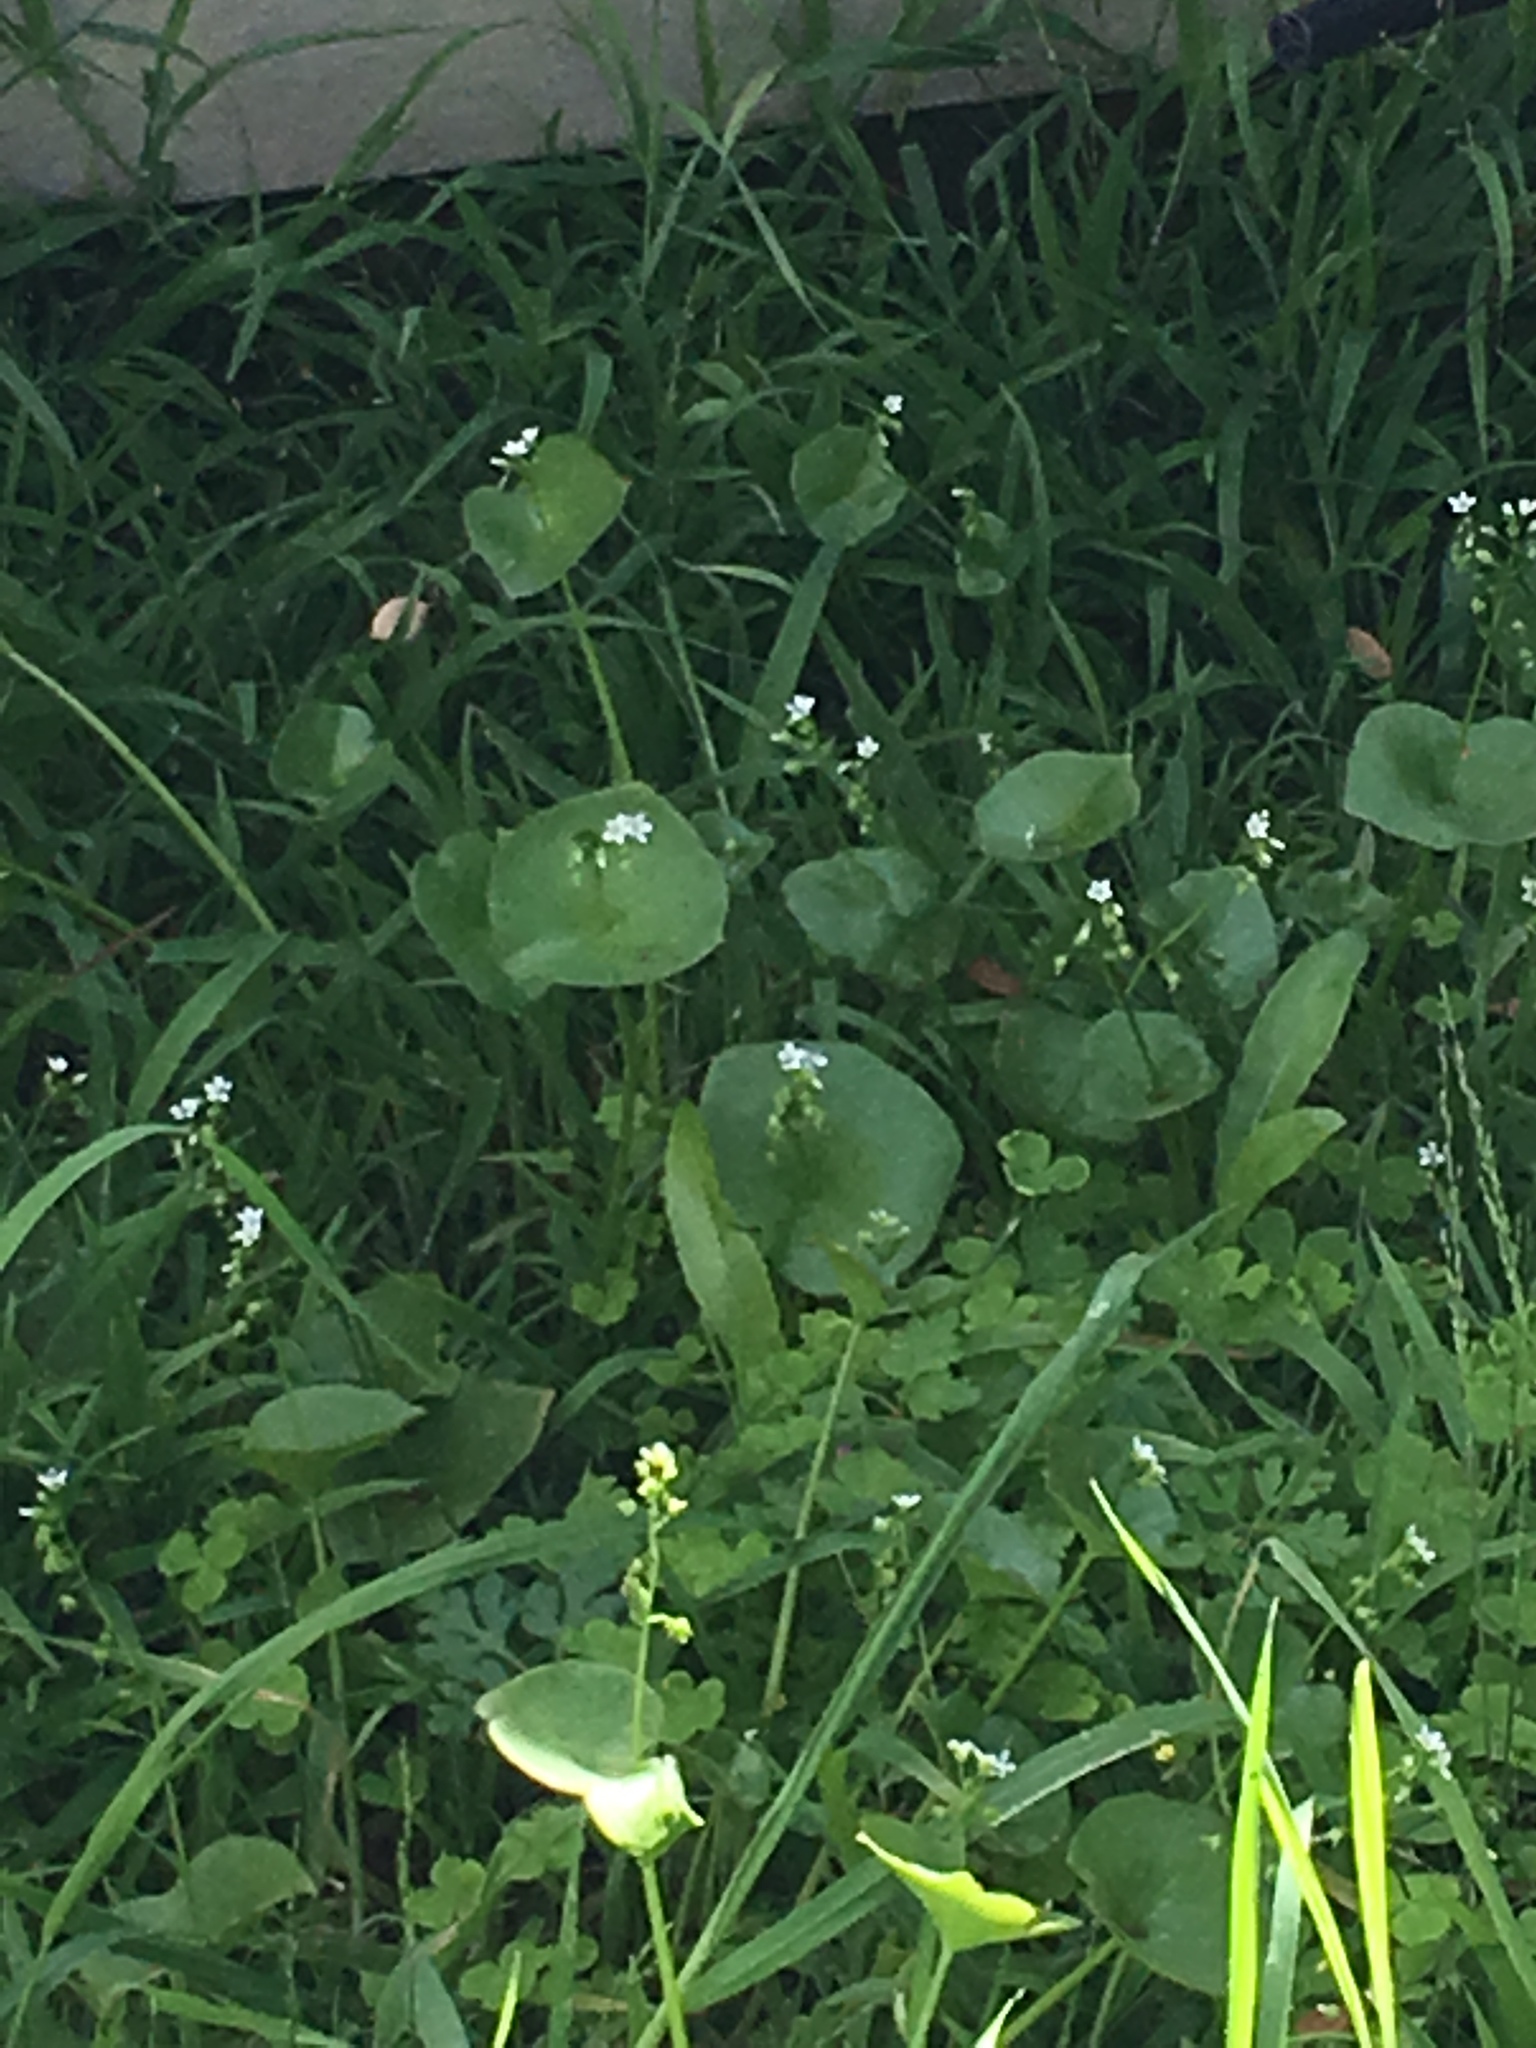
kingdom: Plantae
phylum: Tracheophyta
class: Magnoliopsida
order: Caryophyllales
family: Montiaceae
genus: Claytonia
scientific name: Claytonia perfoliata
